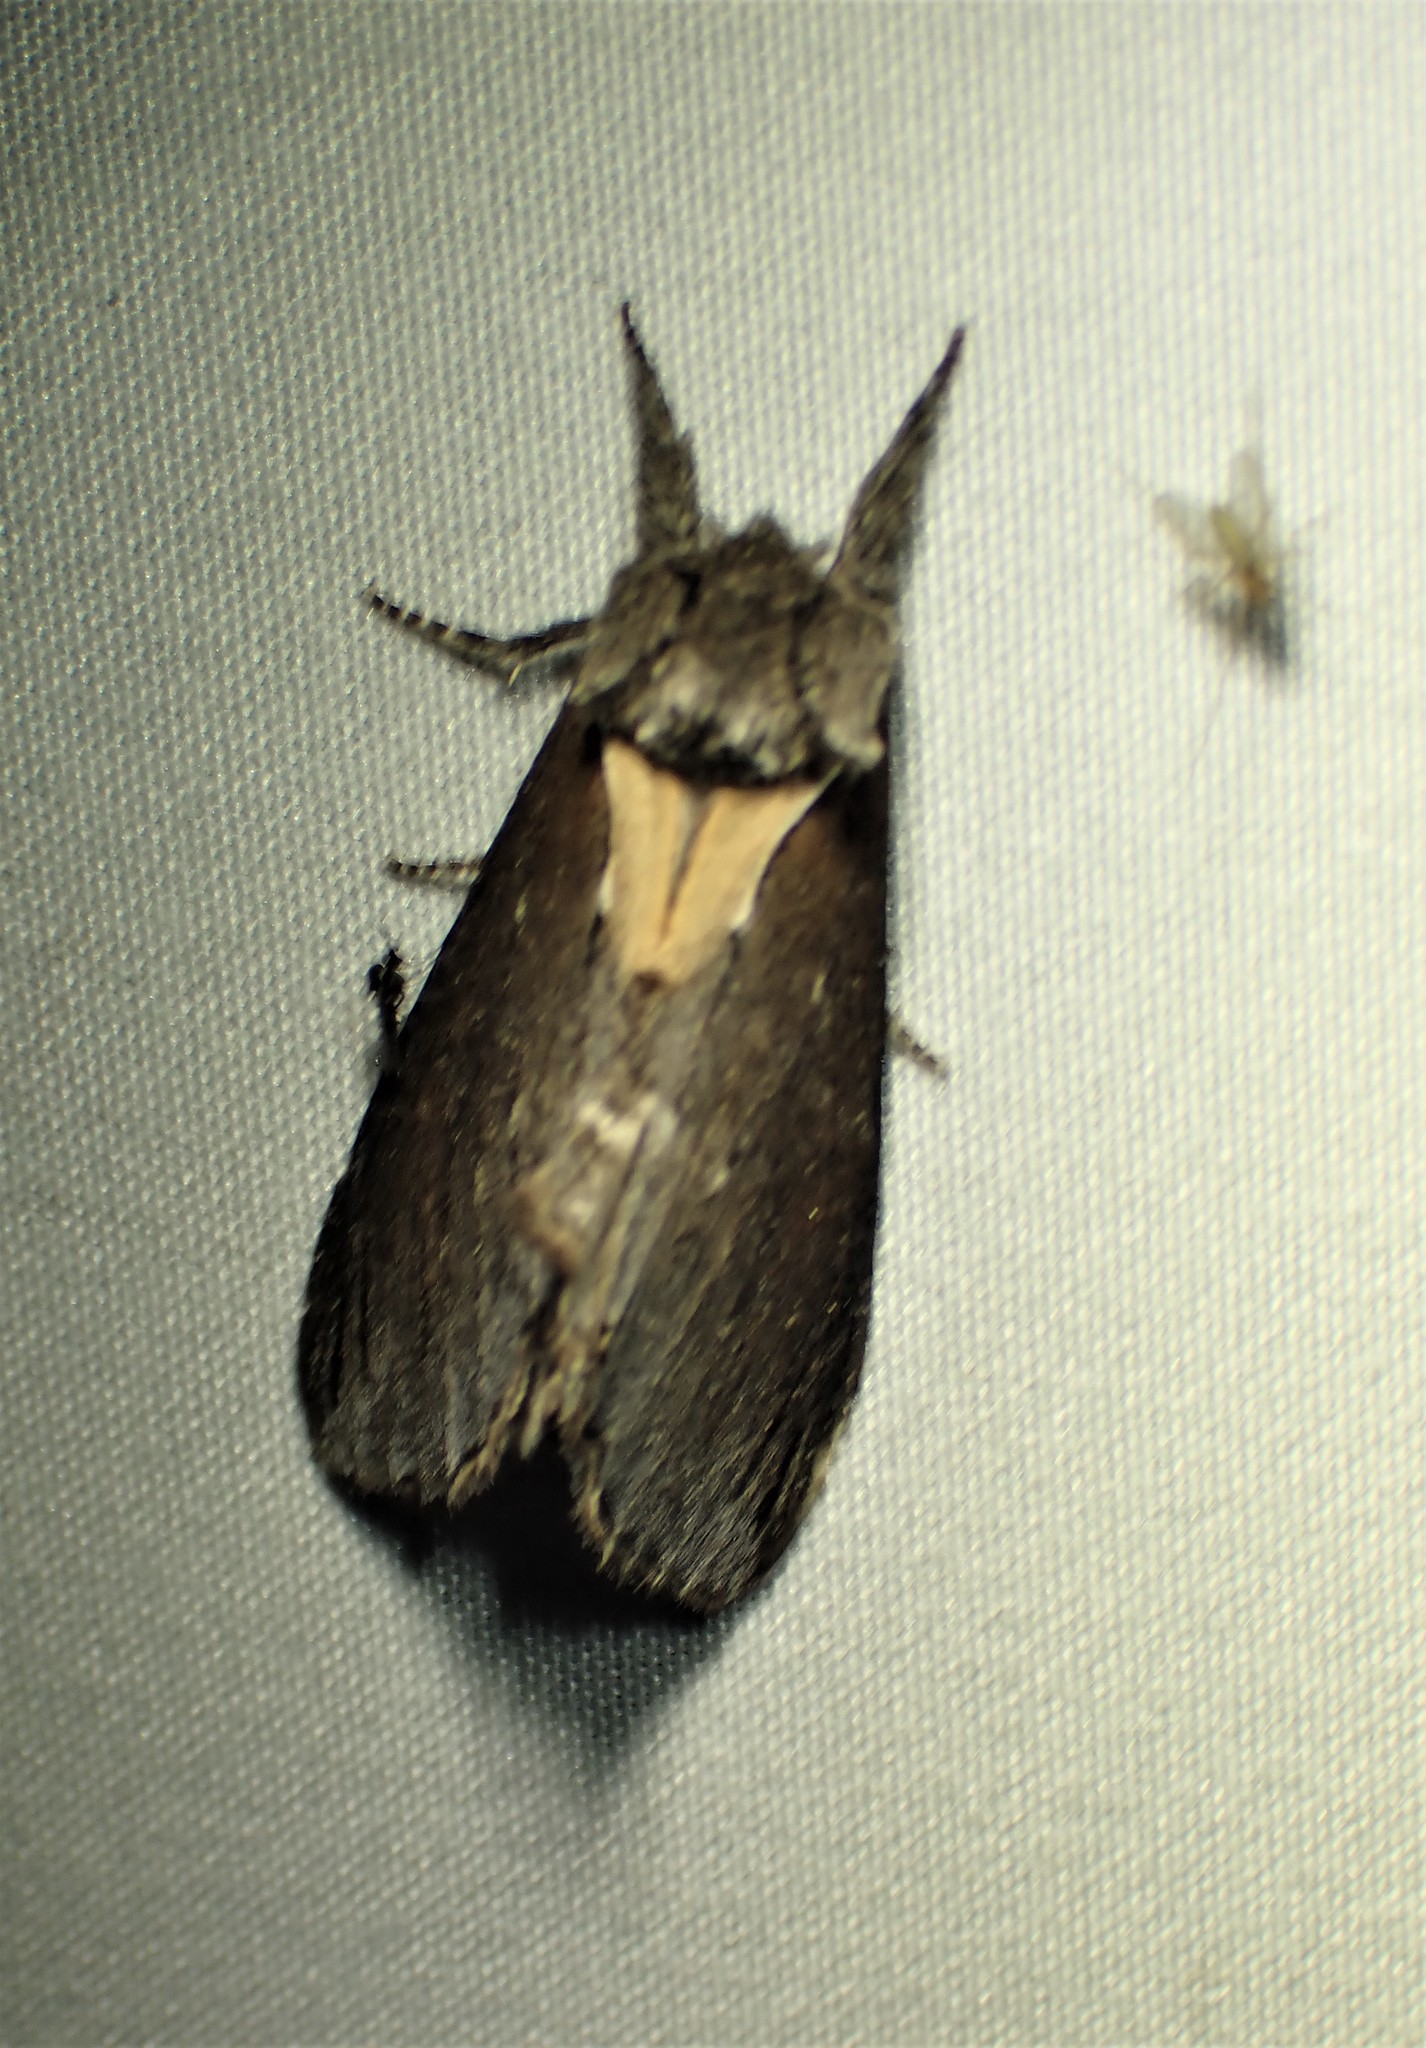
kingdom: Animalia
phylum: Arthropoda
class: Insecta
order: Lepidoptera
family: Notodontidae
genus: Pheosidea
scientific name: Pheosidea elegans
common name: Elegant prominent
